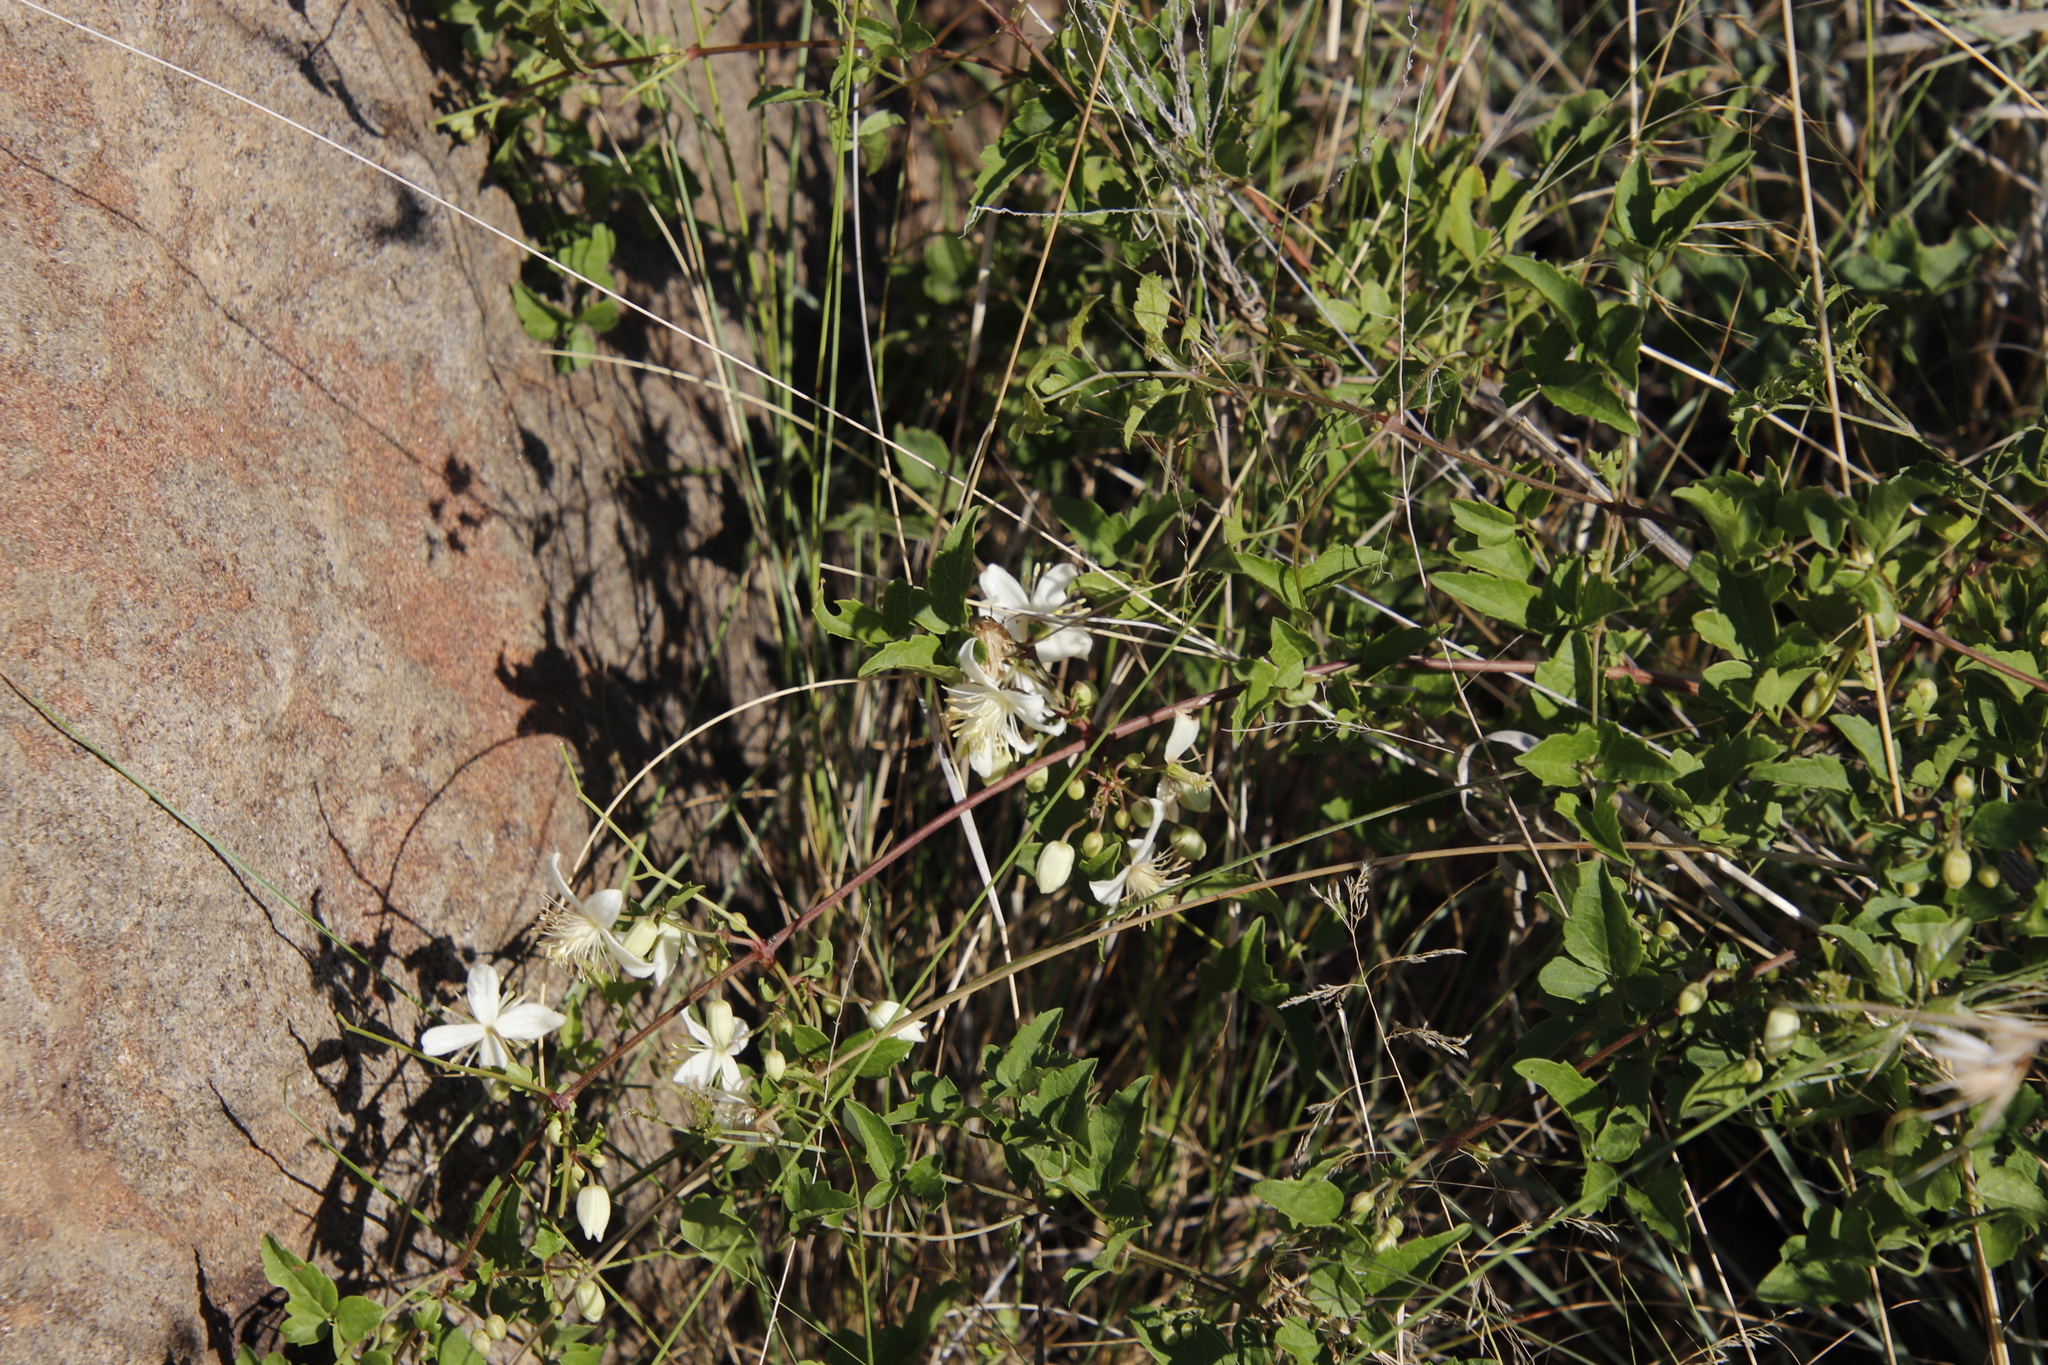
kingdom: Plantae
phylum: Tracheophyta
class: Magnoliopsida
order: Ranunculales
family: Ranunculaceae
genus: Clematis
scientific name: Clematis brachiata
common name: Traveler's-joy
